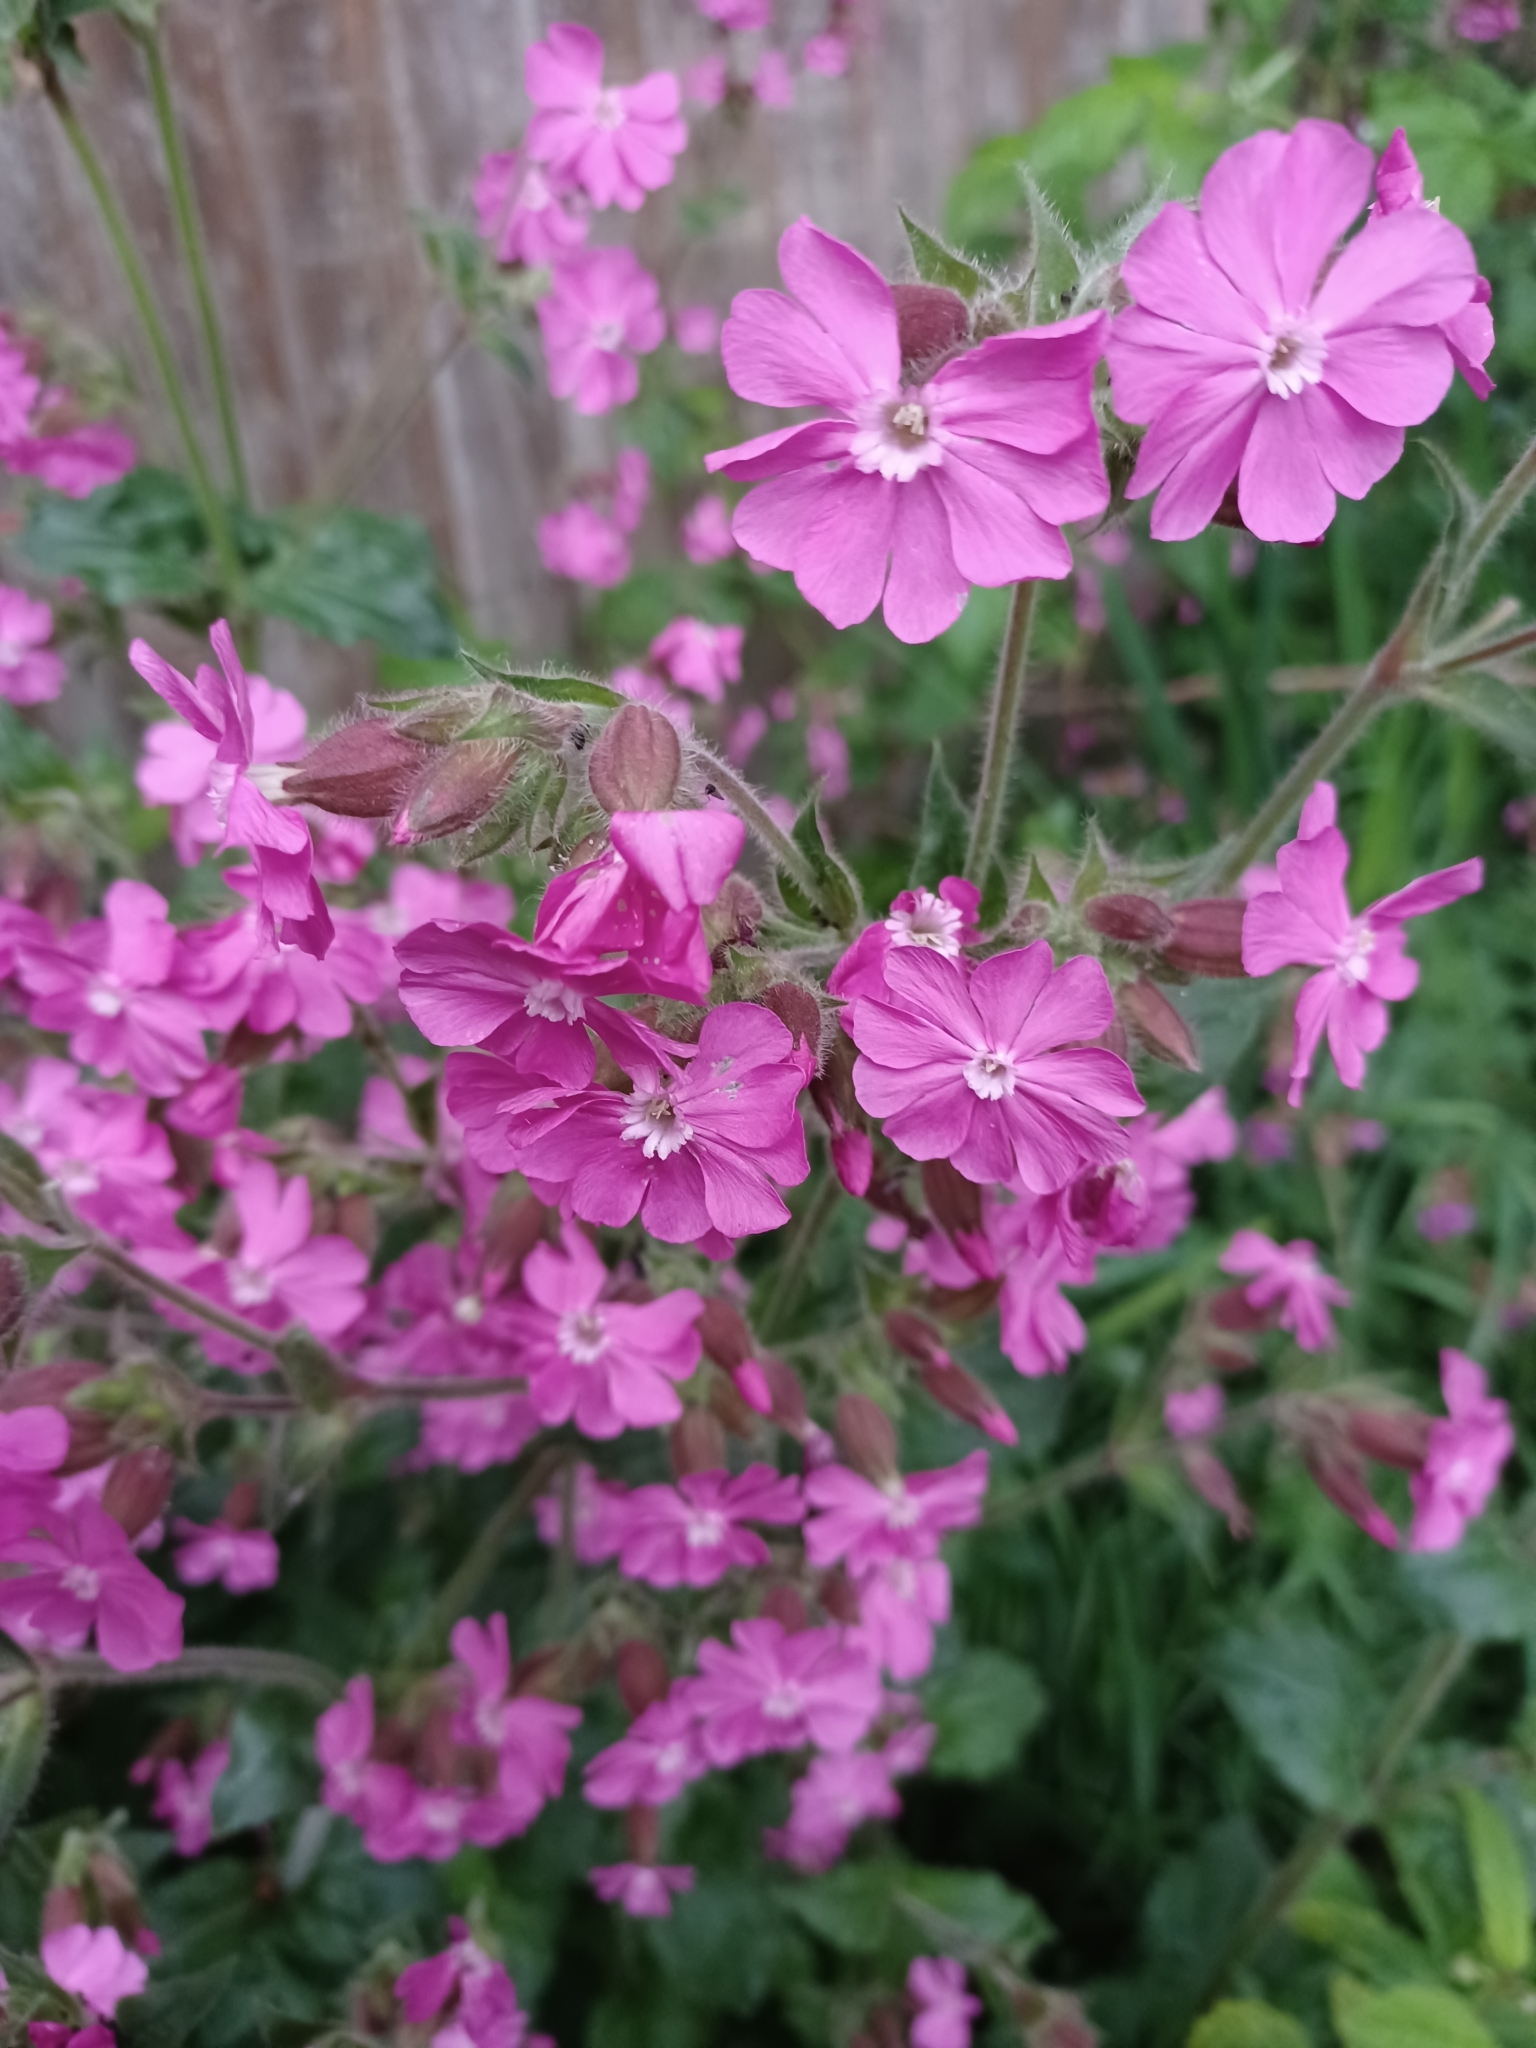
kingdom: Plantae
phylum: Tracheophyta
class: Magnoliopsida
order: Caryophyllales
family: Caryophyllaceae
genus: Silene
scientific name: Silene dioica
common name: Red campion
